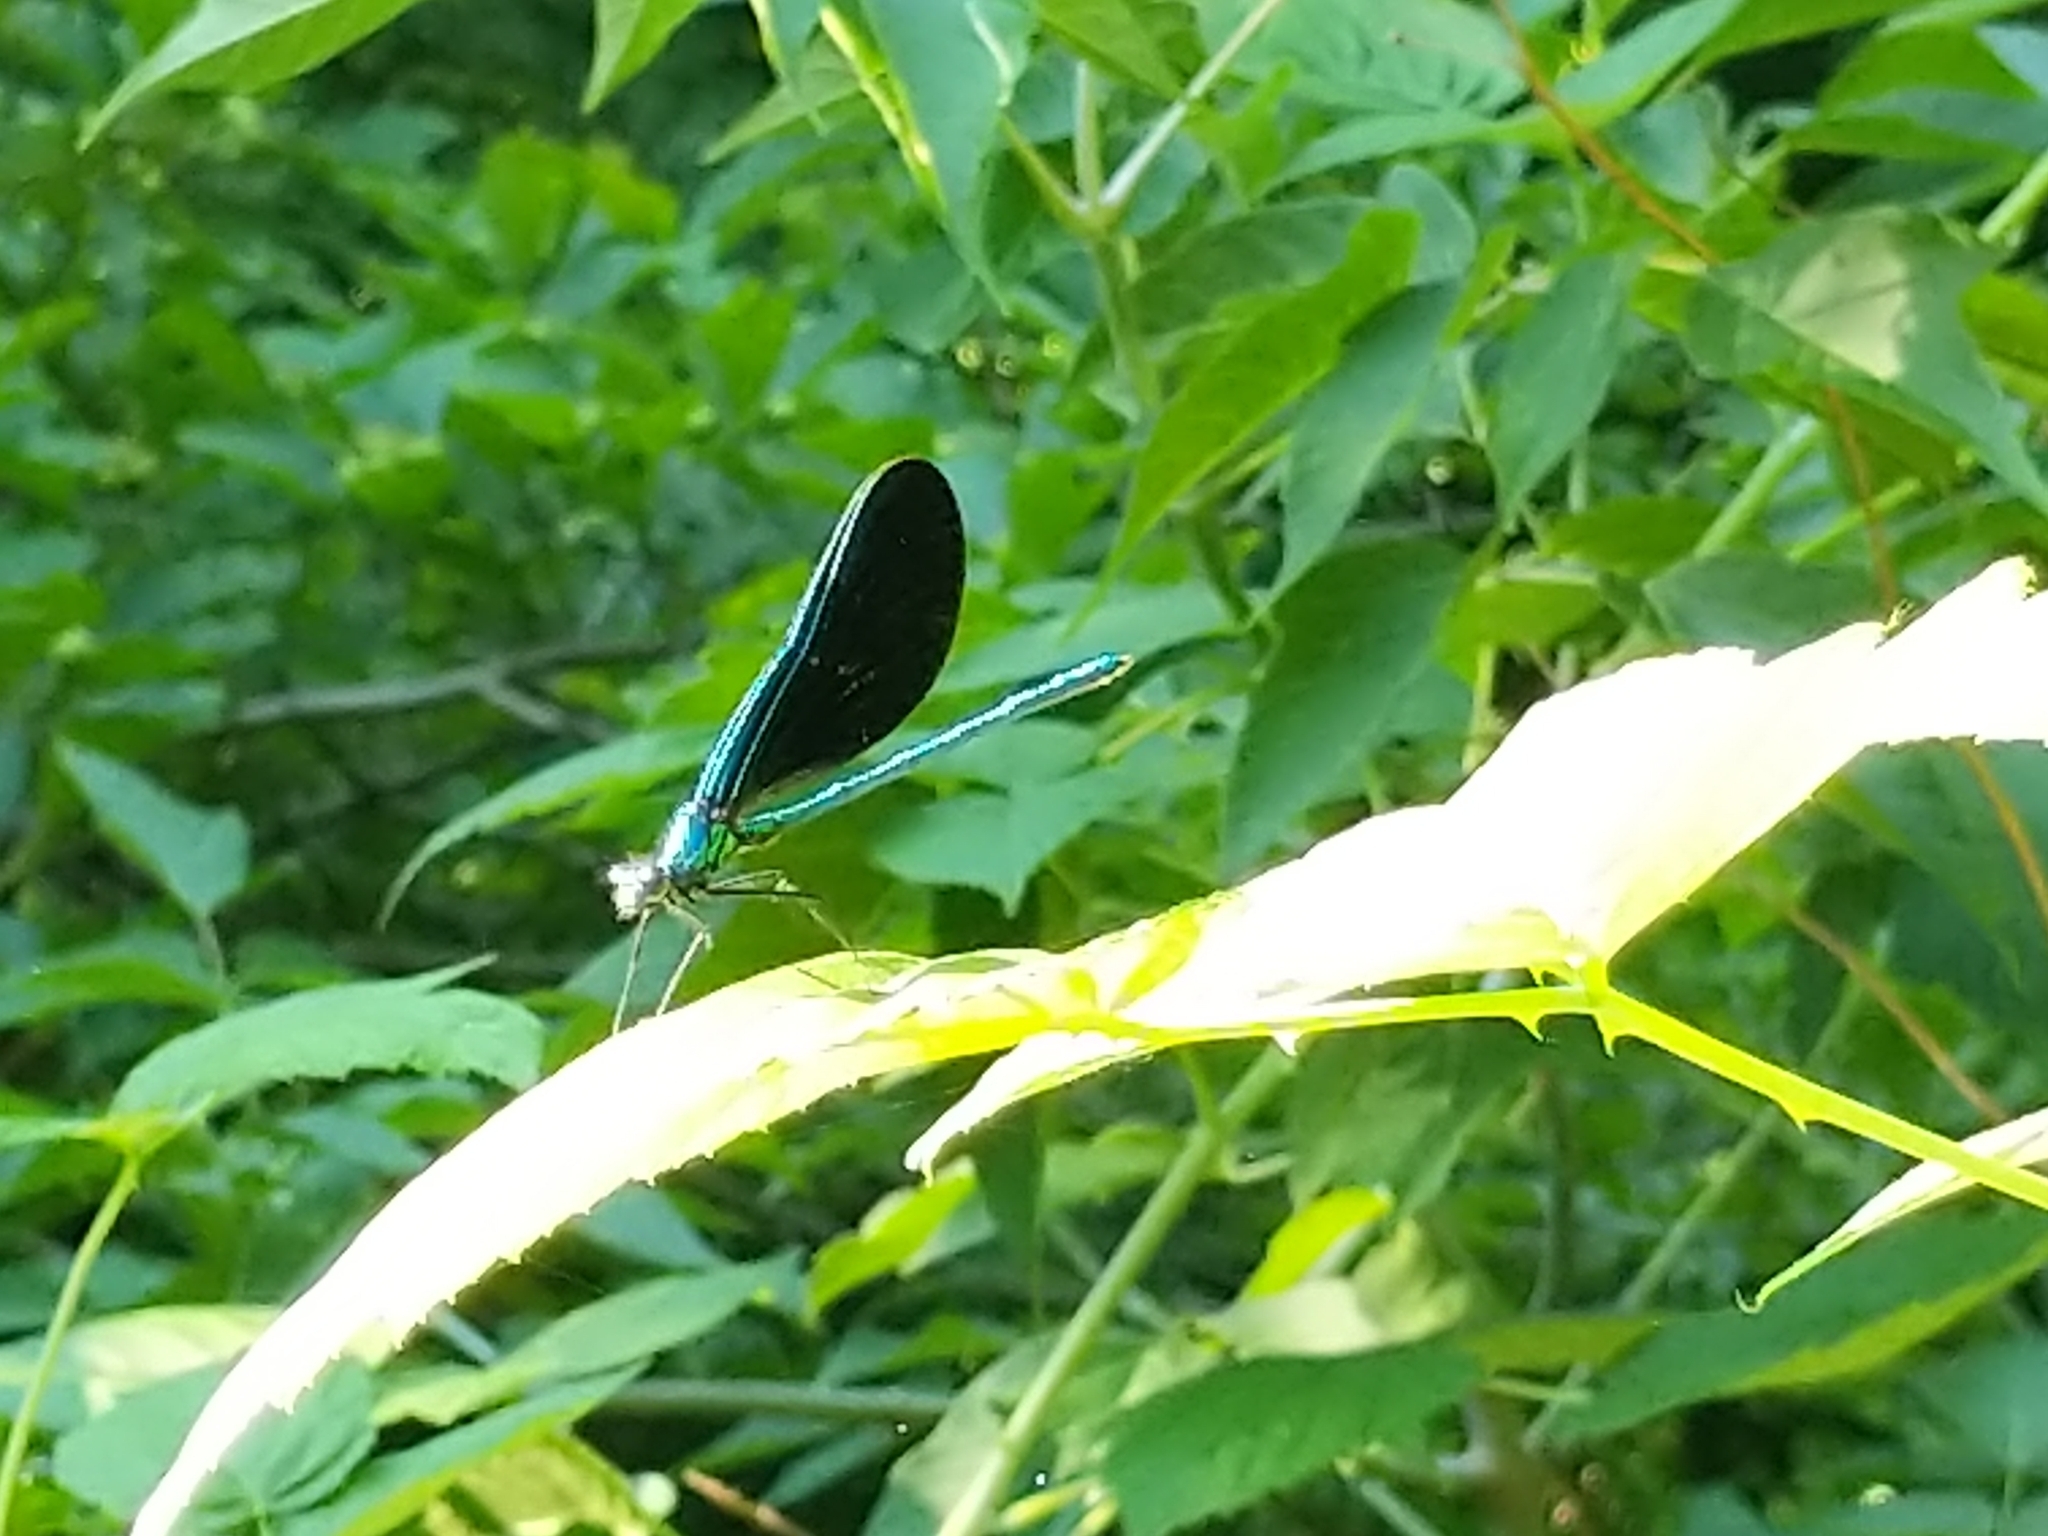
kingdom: Animalia
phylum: Arthropoda
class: Insecta
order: Odonata
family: Calopterygidae
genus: Calopteryx
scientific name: Calopteryx maculata
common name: Ebony jewelwing
